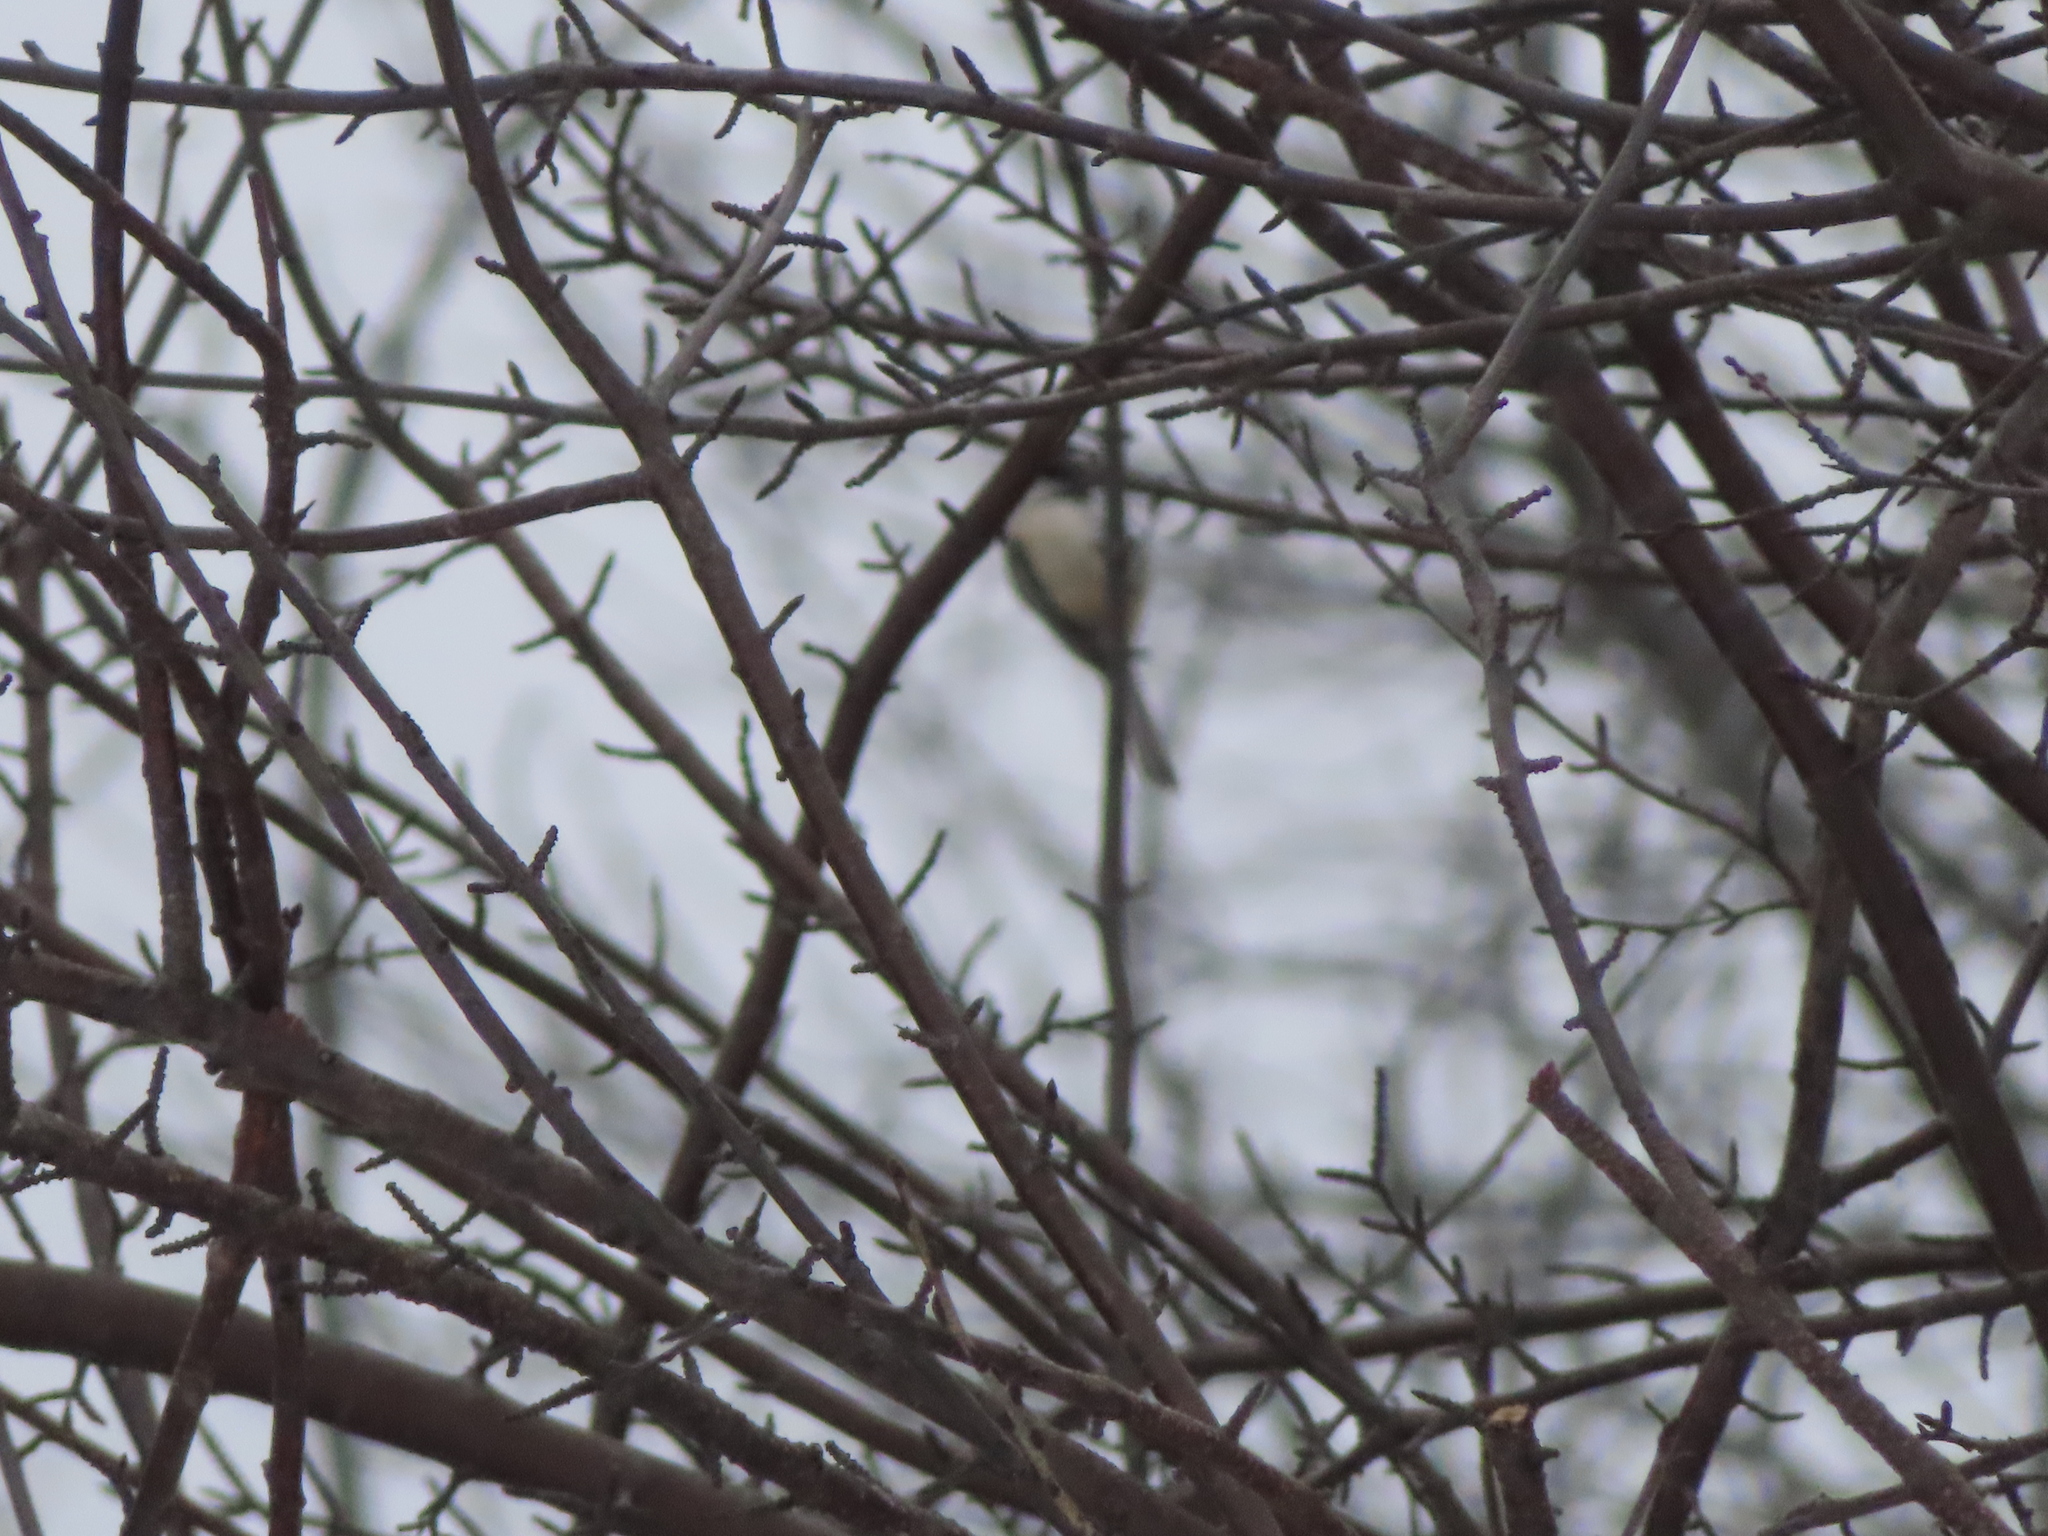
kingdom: Animalia
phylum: Chordata
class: Aves
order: Passeriformes
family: Paridae
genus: Poecile
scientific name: Poecile atricapillus
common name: Black-capped chickadee
